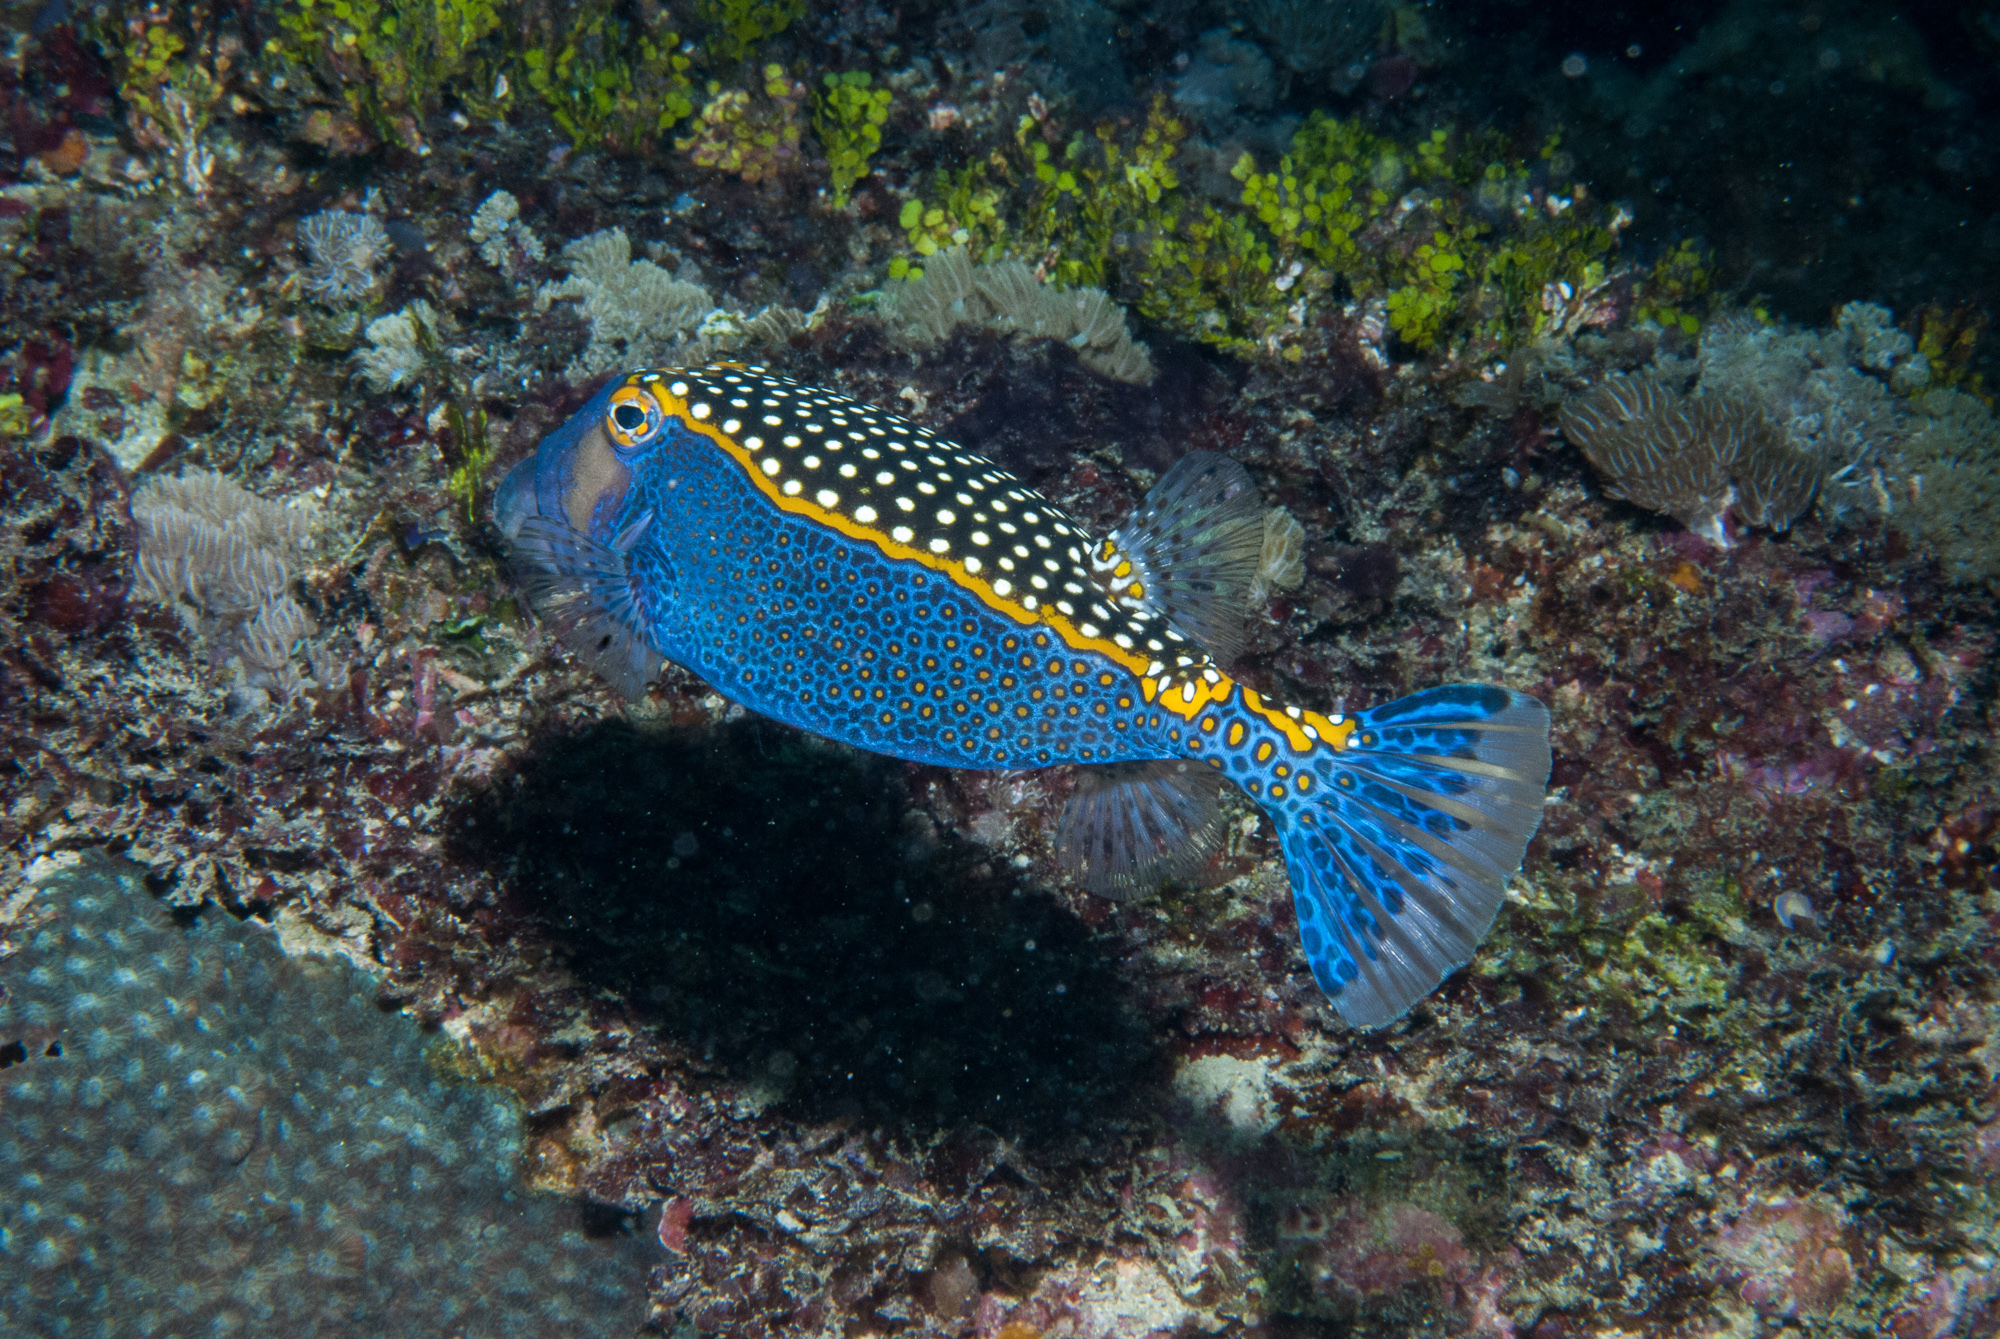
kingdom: Animalia
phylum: Chordata
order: Tetraodontiformes
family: Ostraciidae
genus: Ostracion
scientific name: Ostracion meleagris
